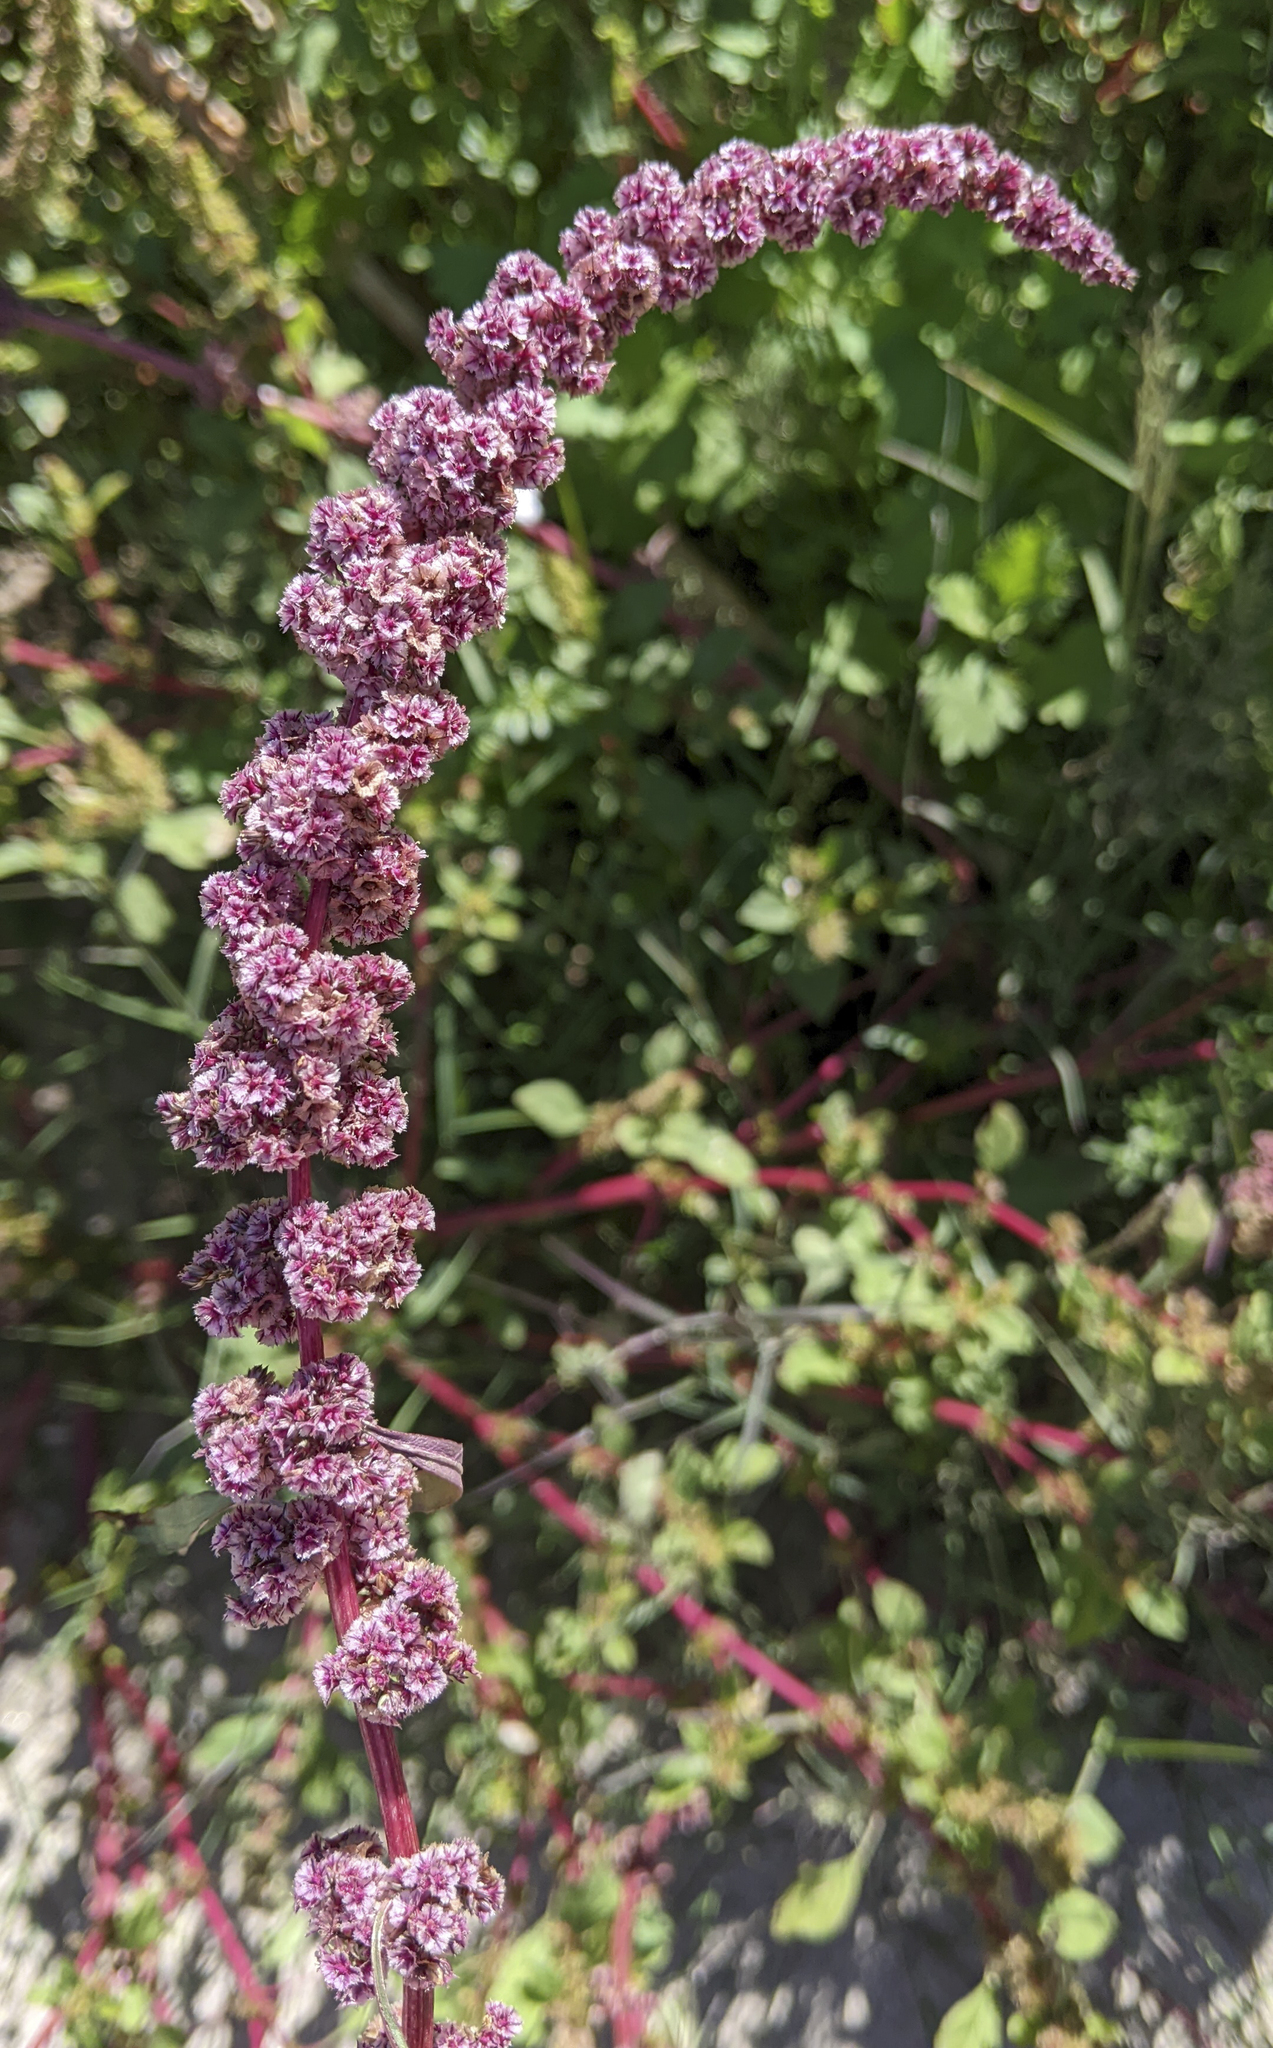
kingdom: Plantae
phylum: Tracheophyta
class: Magnoliopsida
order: Caryophyllales
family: Amaranthaceae
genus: Amaranthus
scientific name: Amaranthus fimbriatus
